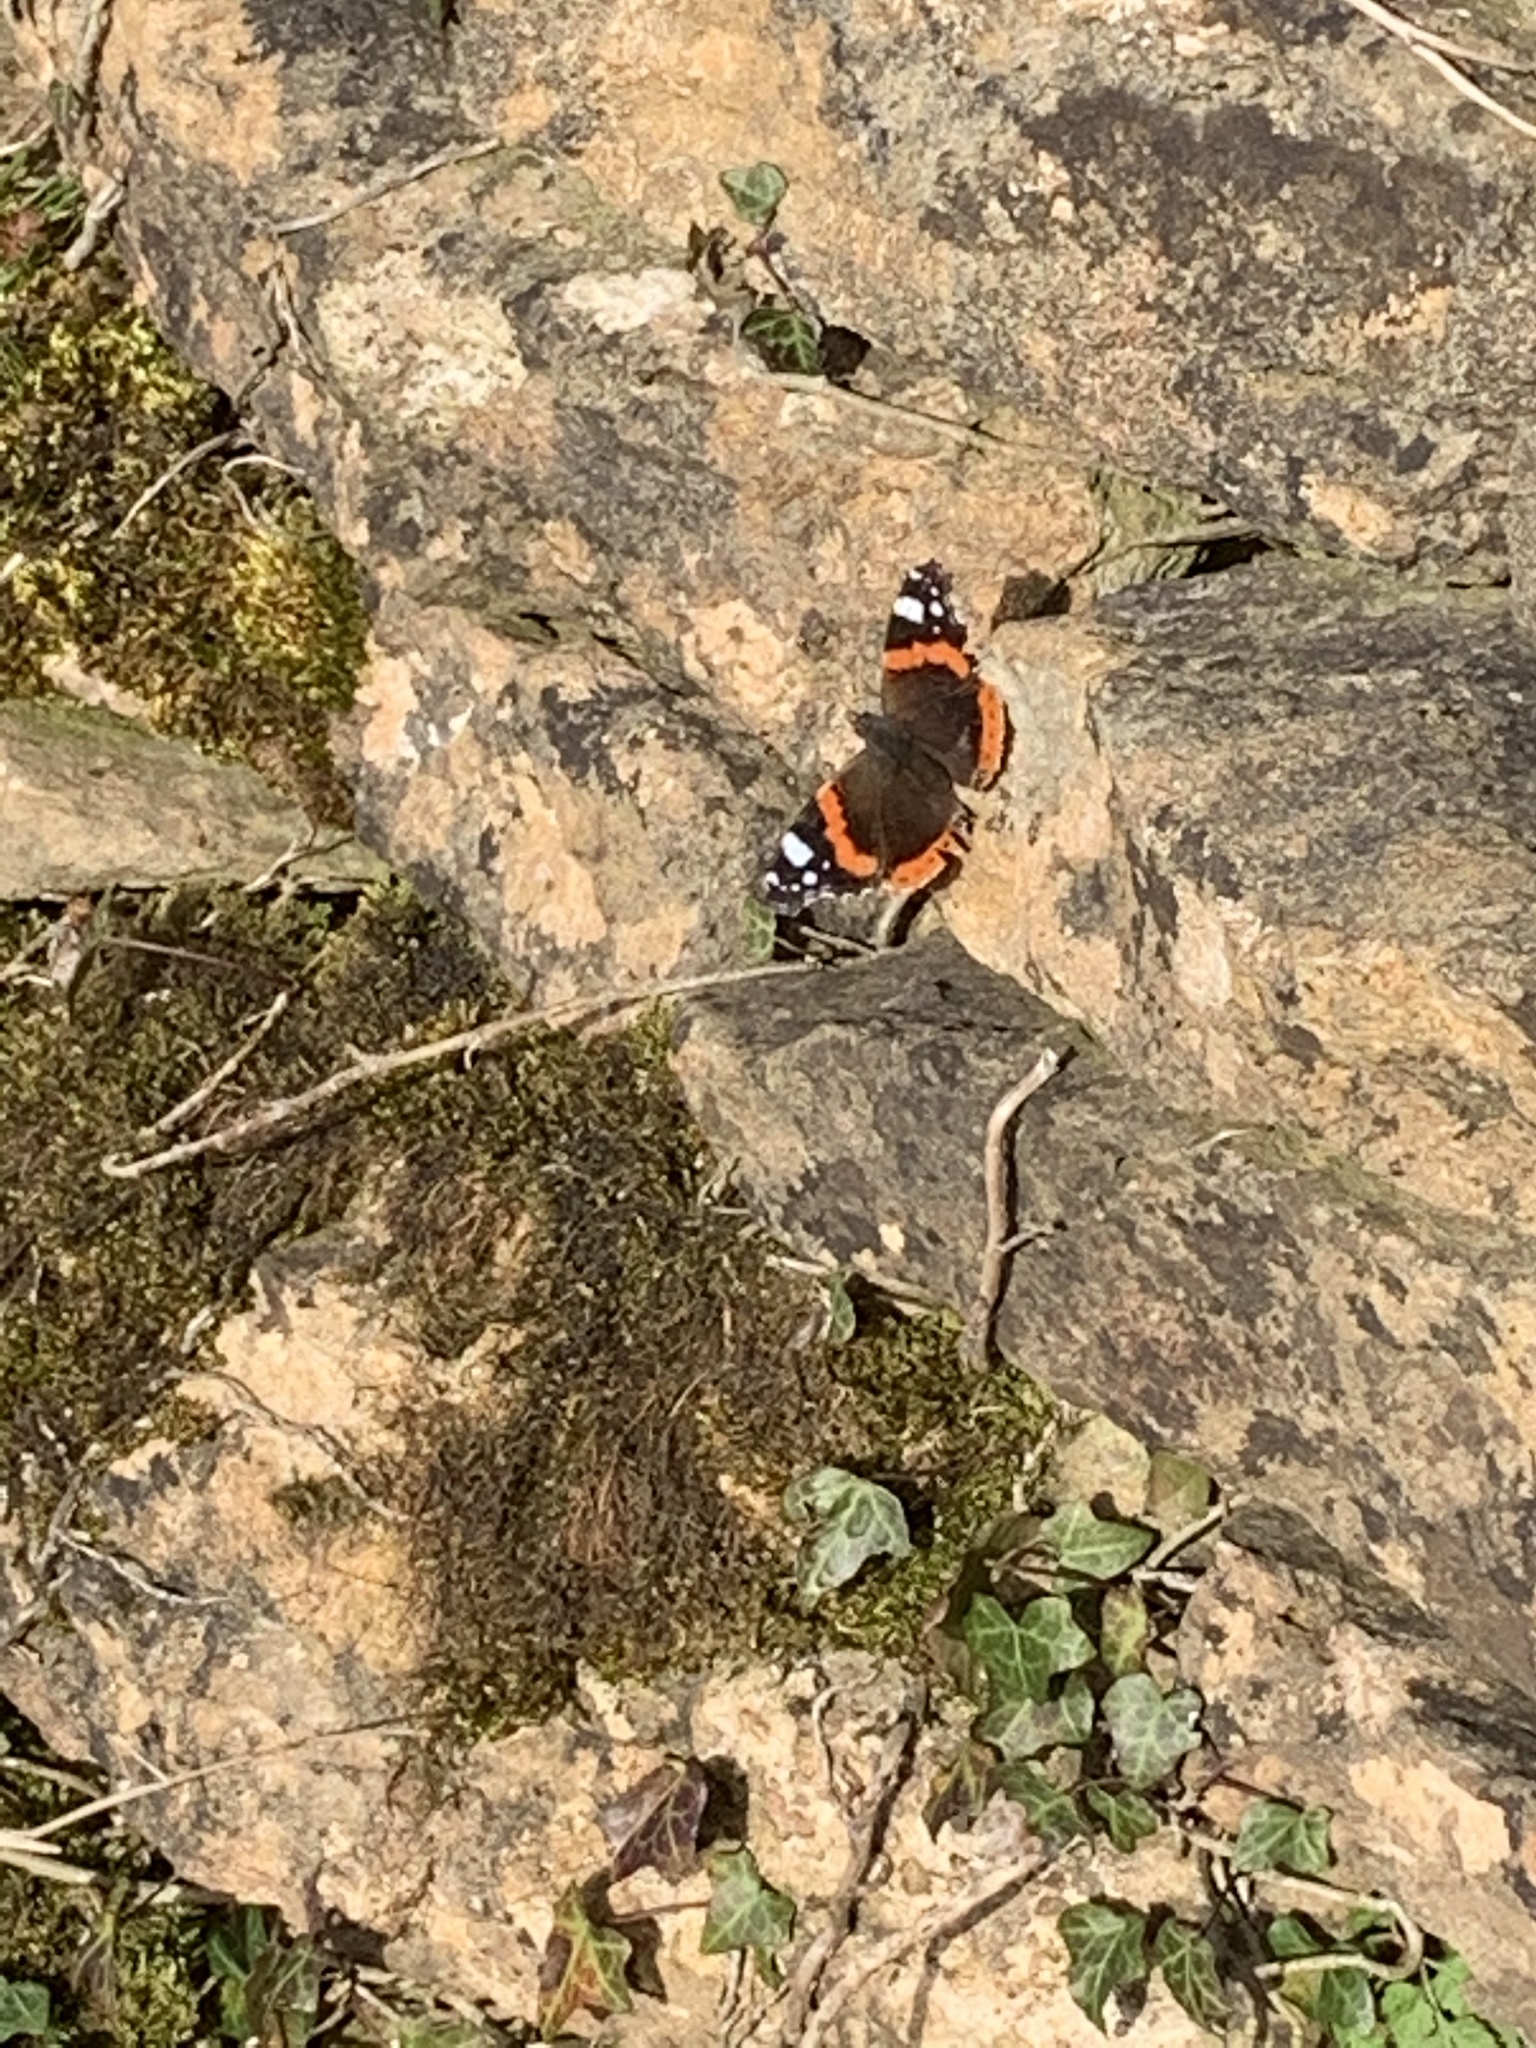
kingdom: Animalia
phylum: Arthropoda
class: Insecta
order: Lepidoptera
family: Nymphalidae
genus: Vanessa
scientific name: Vanessa atalanta
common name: Red admiral
